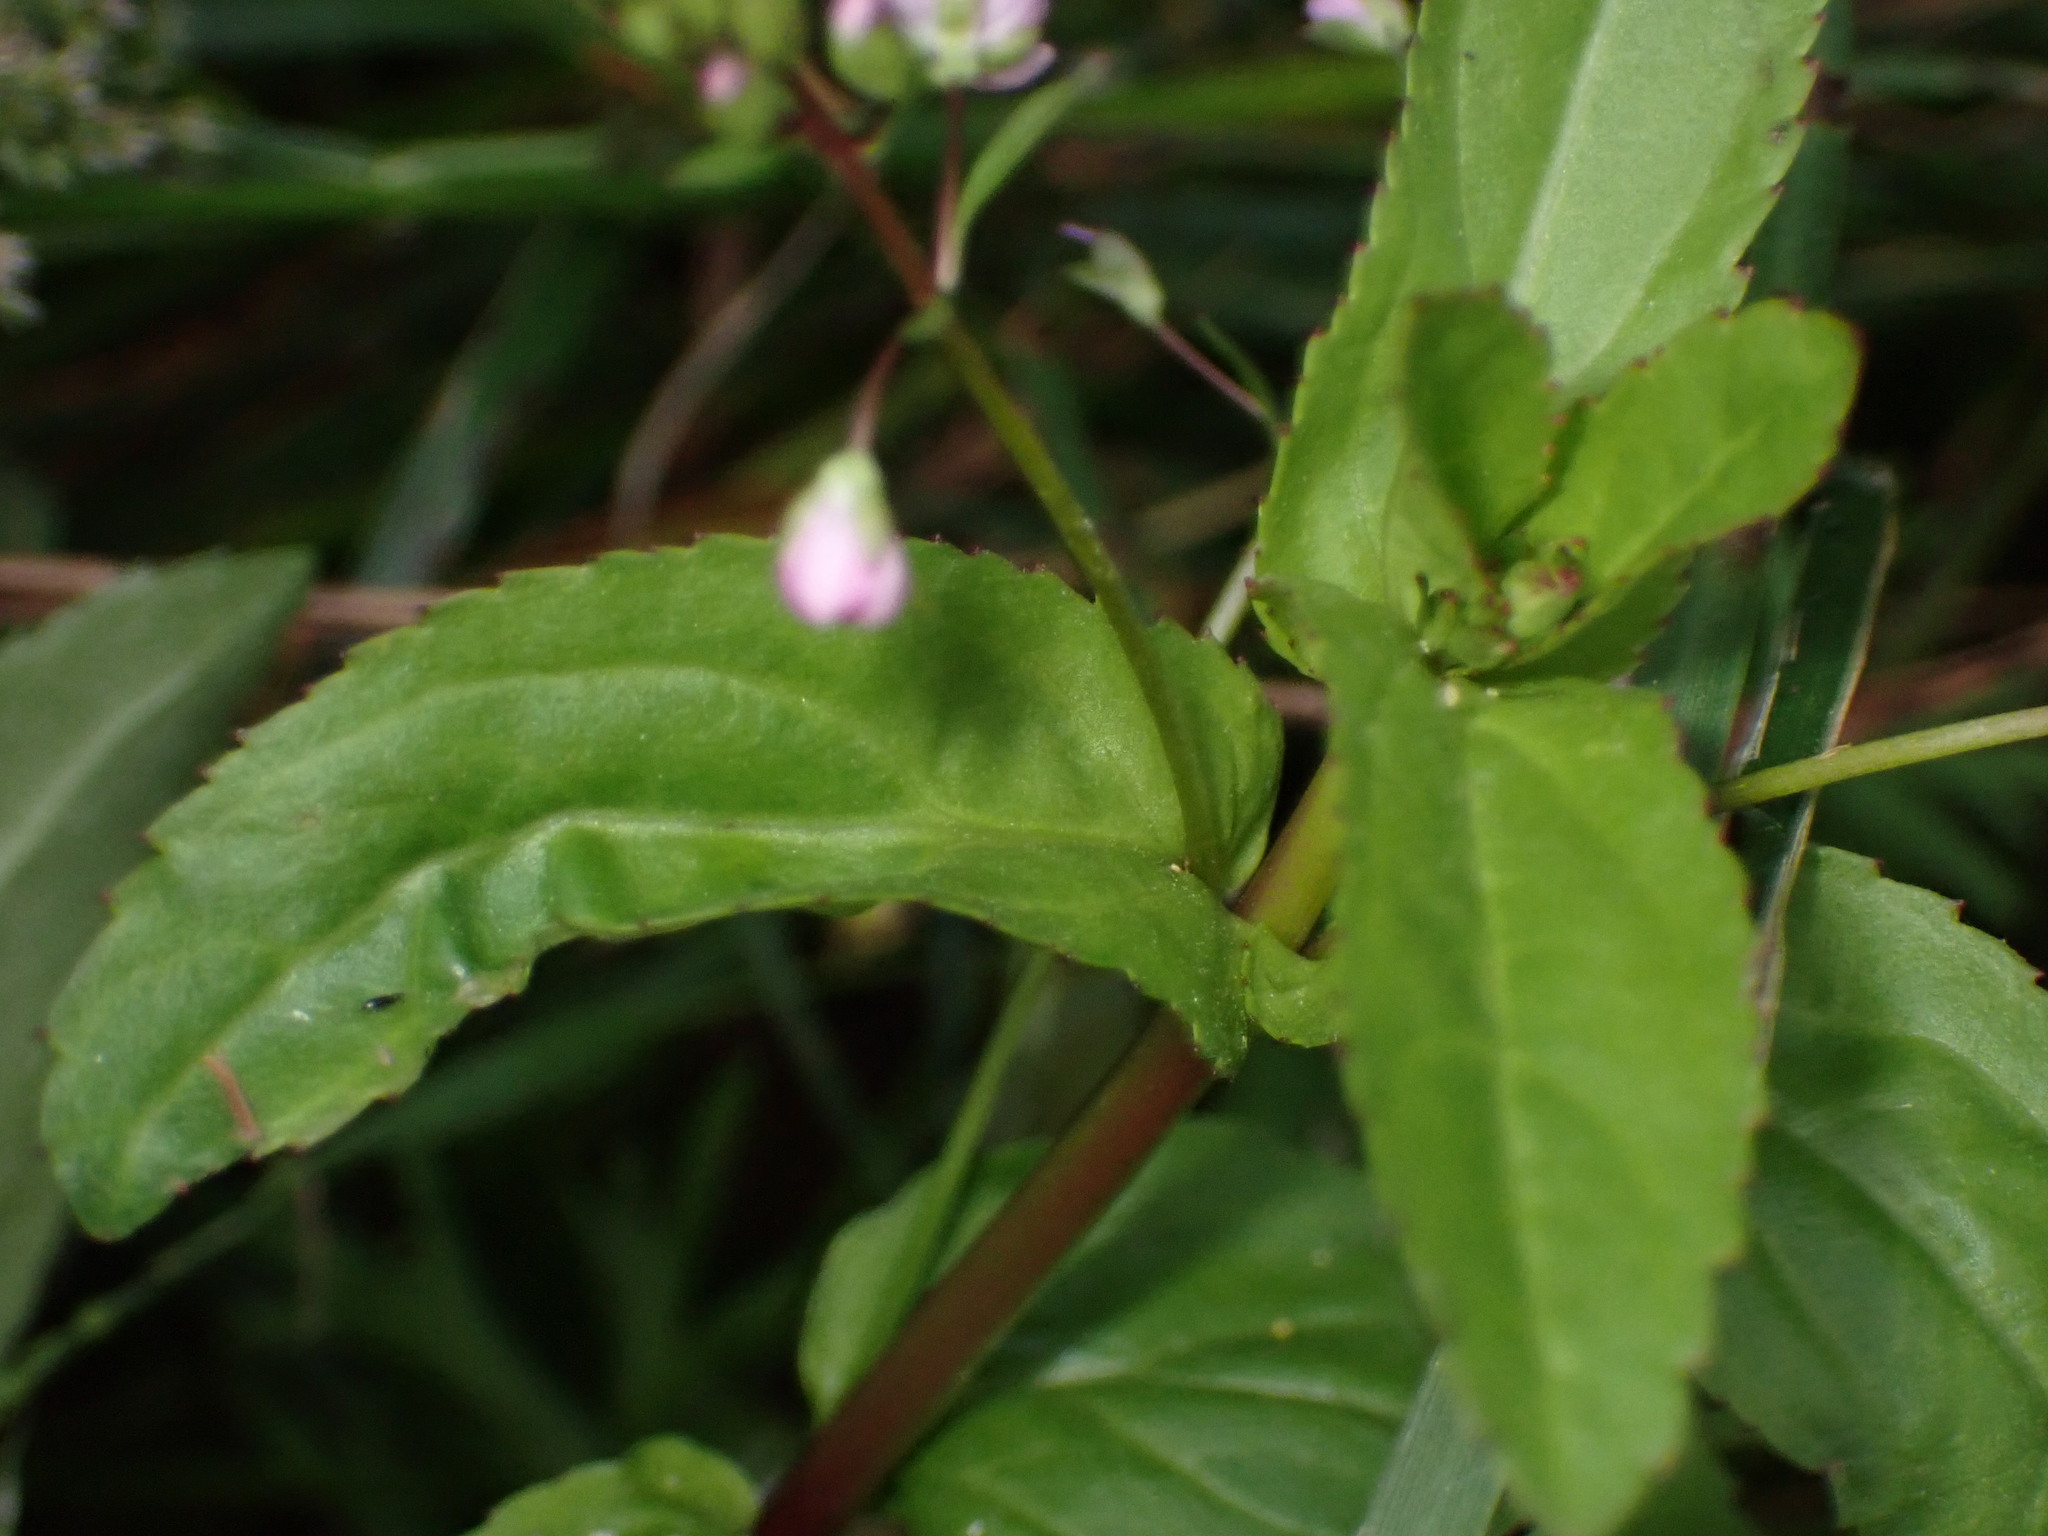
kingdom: Plantae
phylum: Tracheophyta
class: Magnoliopsida
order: Lamiales
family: Plantaginaceae
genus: Veronica
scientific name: Veronica americana
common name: American brooklime
